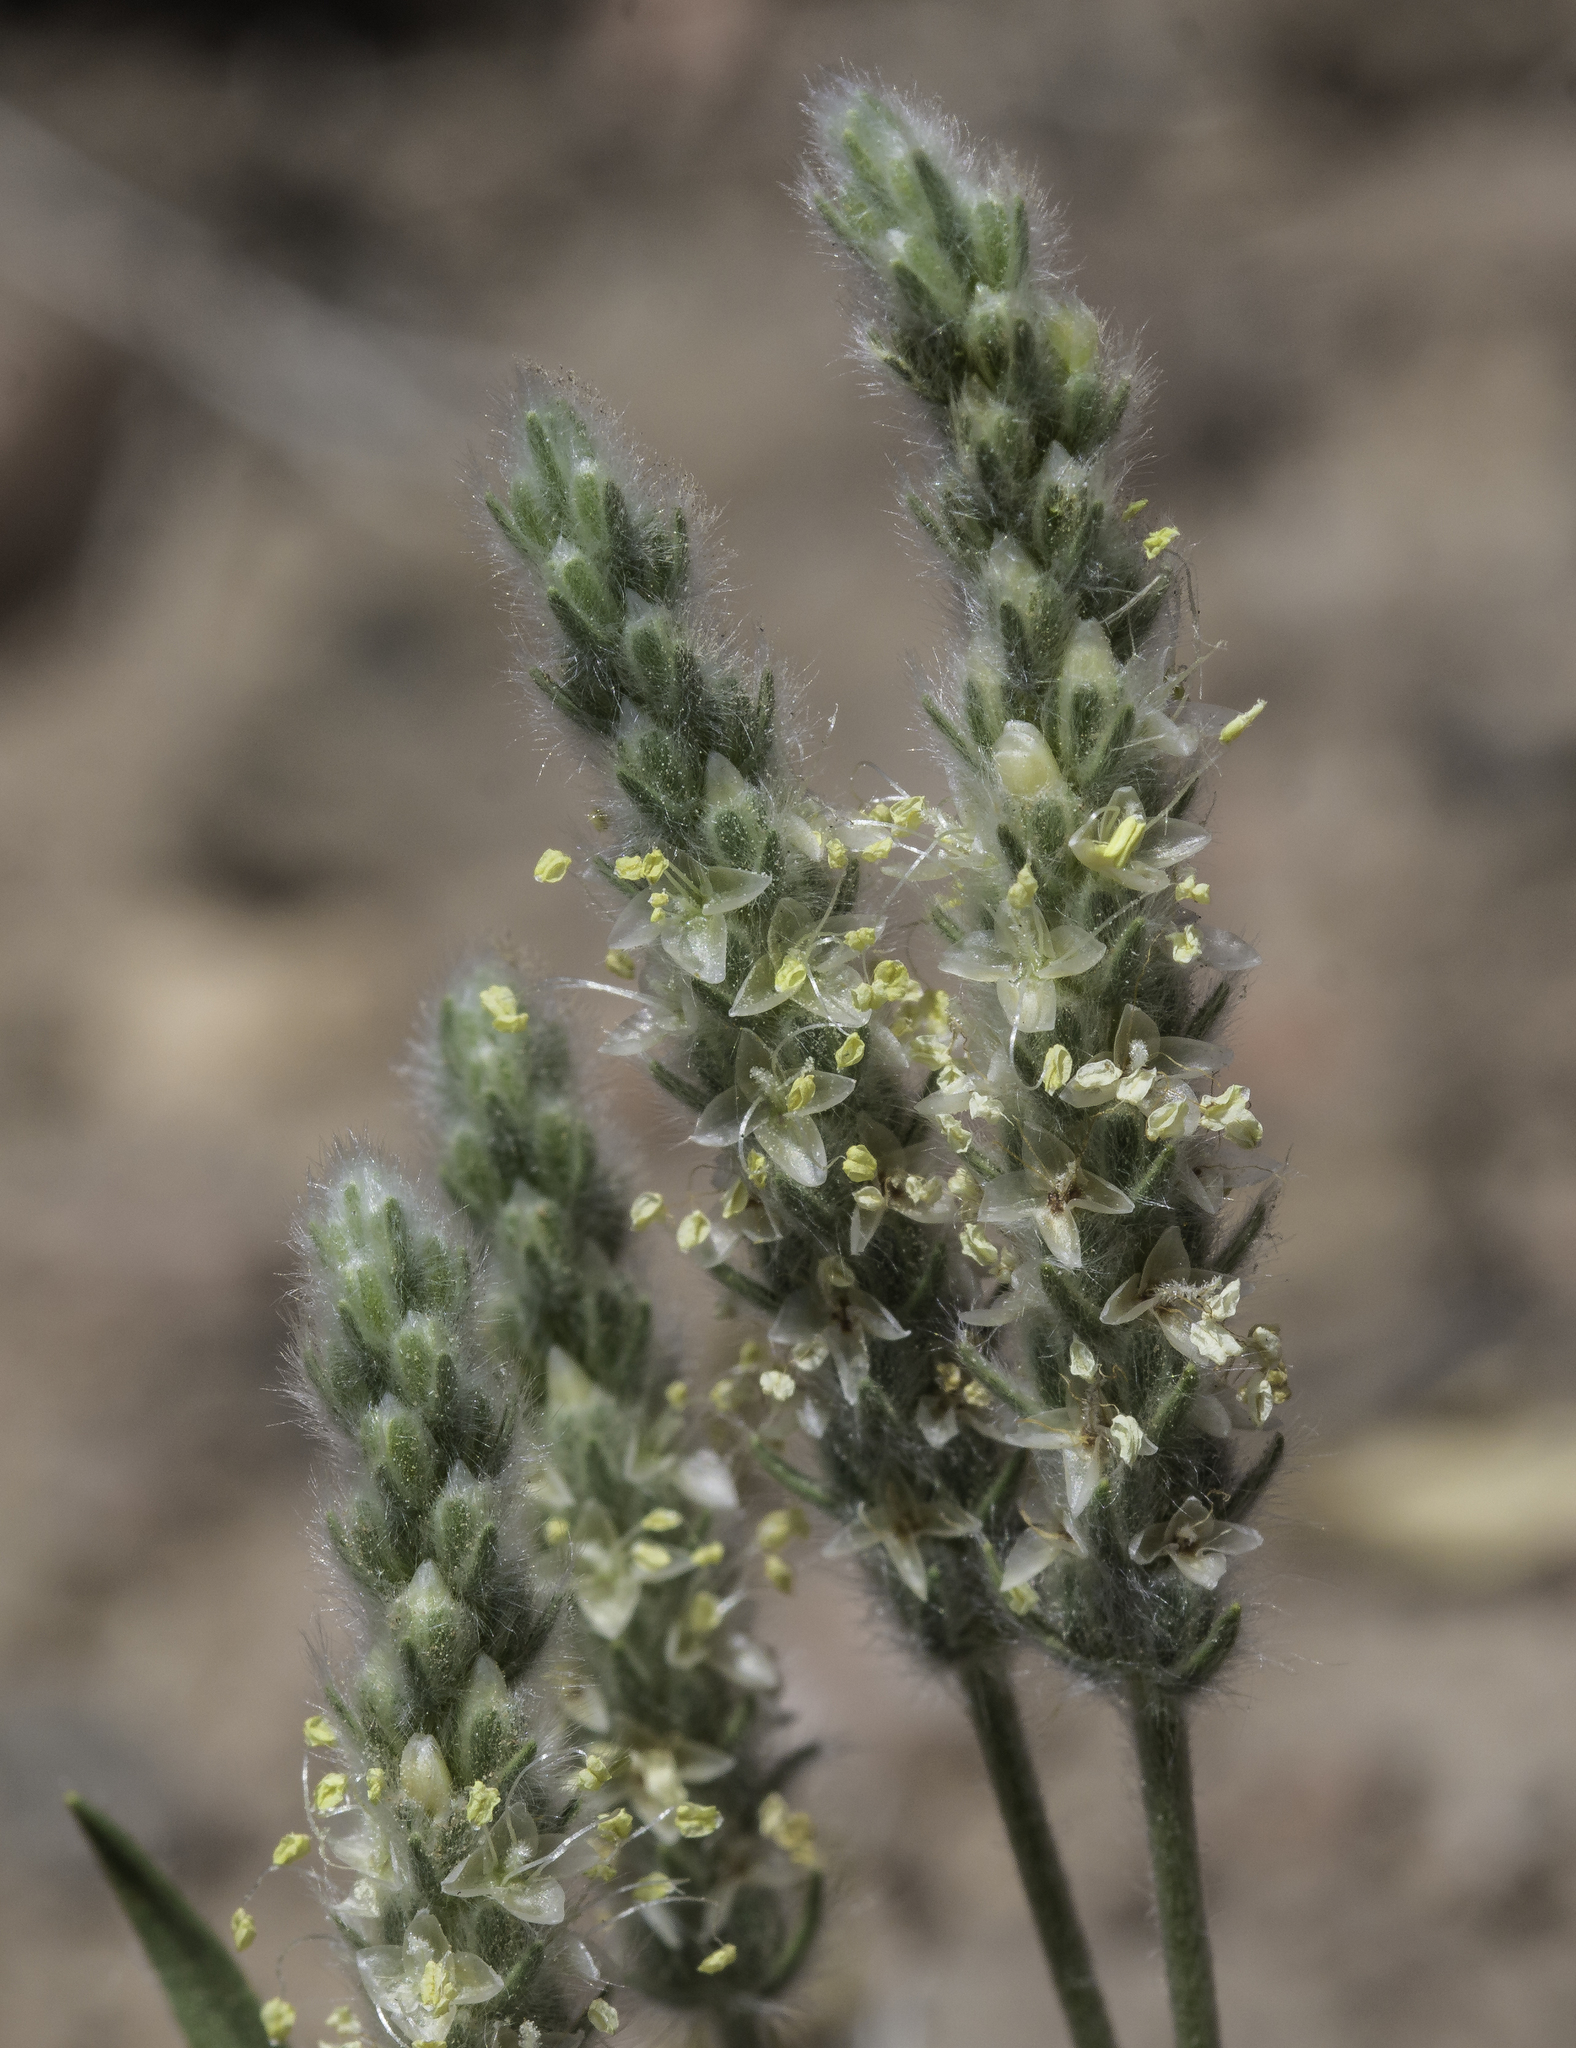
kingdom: Plantae
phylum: Tracheophyta
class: Magnoliopsida
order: Lamiales
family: Plantaginaceae
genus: Plantago
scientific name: Plantago patagonica
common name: Patagonia indian-wheat
